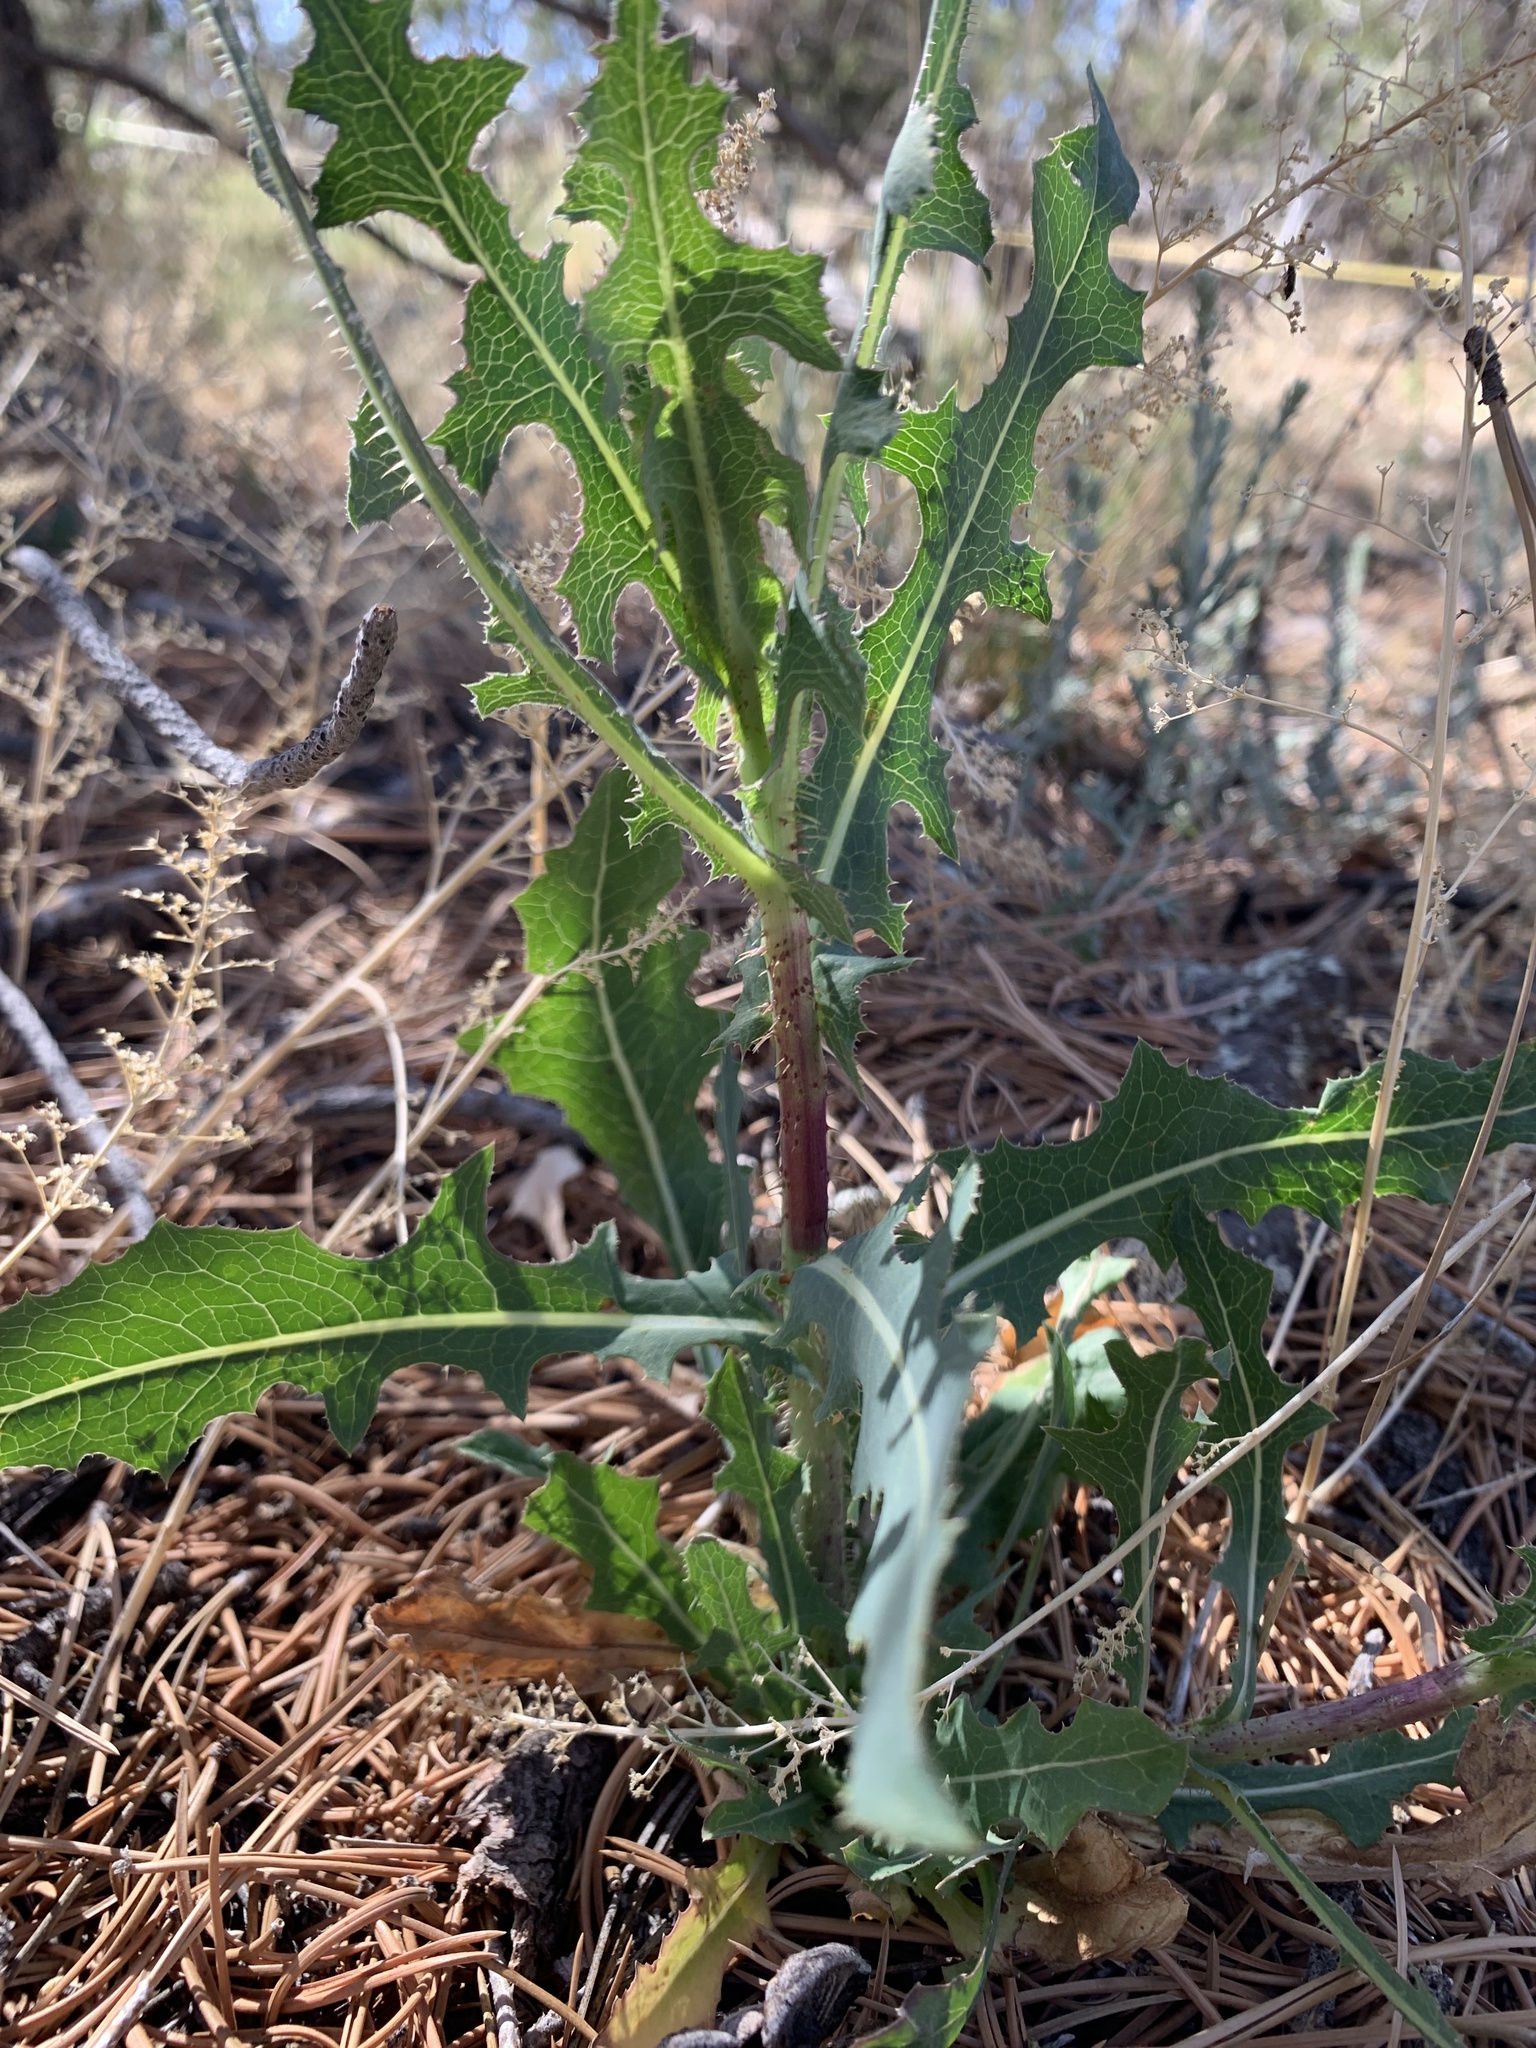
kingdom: Plantae
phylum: Tracheophyta
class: Magnoliopsida
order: Asterales
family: Asteraceae
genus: Lactuca
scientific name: Lactuca serriola
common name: Prickly lettuce
